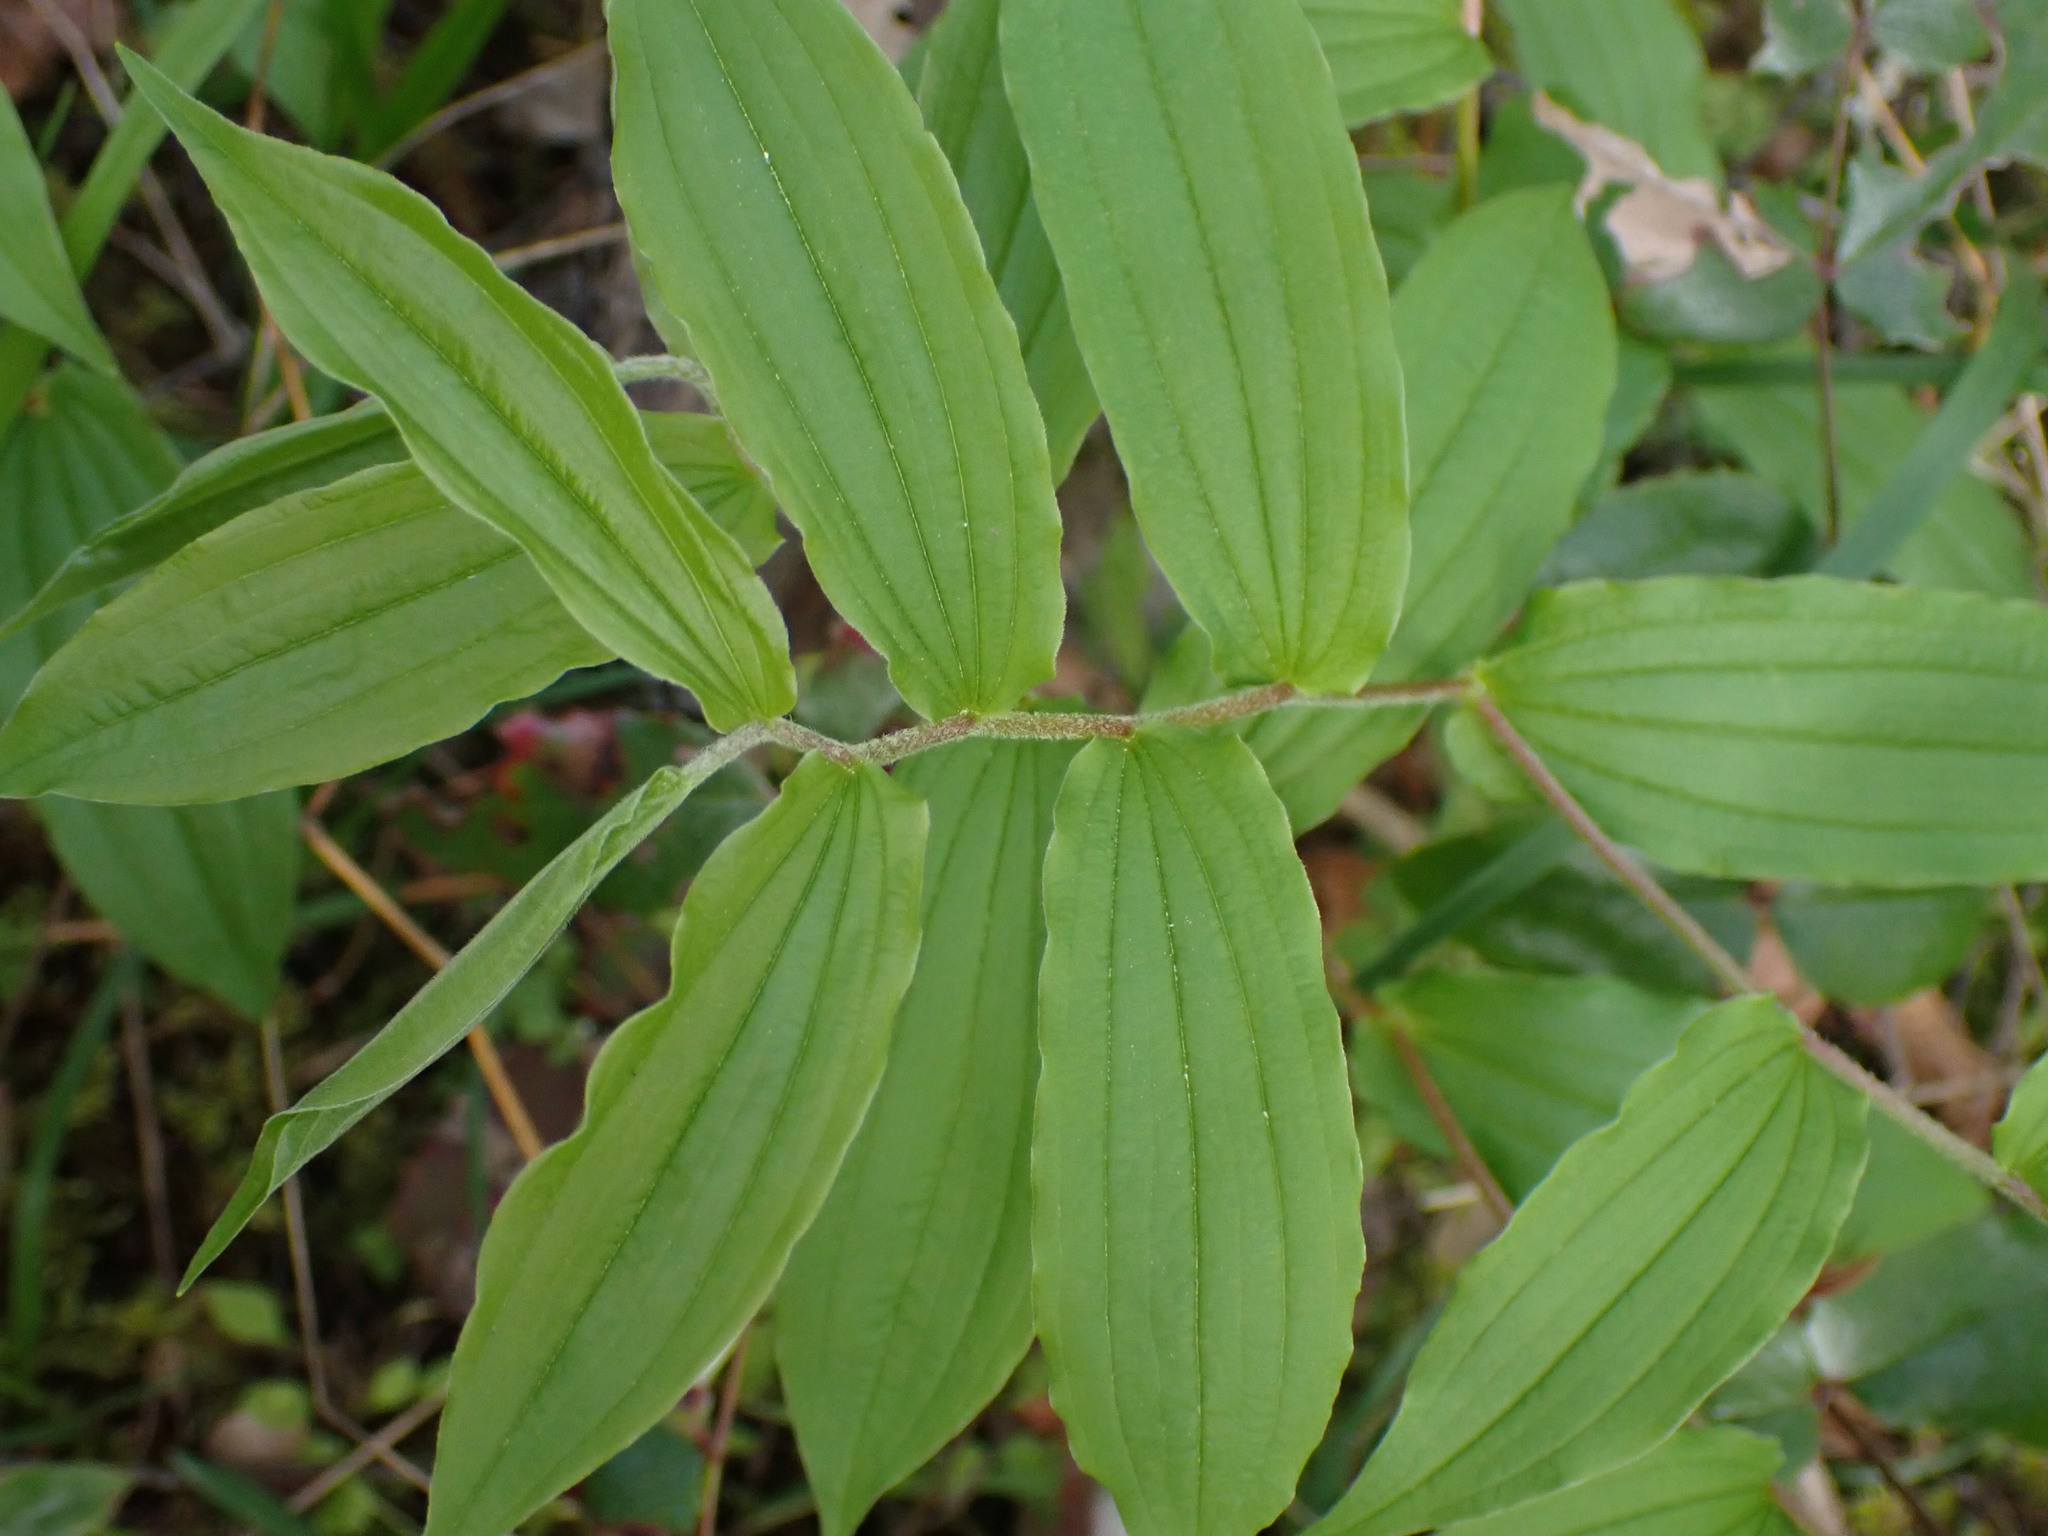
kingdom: Plantae
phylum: Tracheophyta
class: Liliopsida
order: Liliales
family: Liliaceae
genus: Prosartes
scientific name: Prosartes hookeri
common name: Fairy-bells
